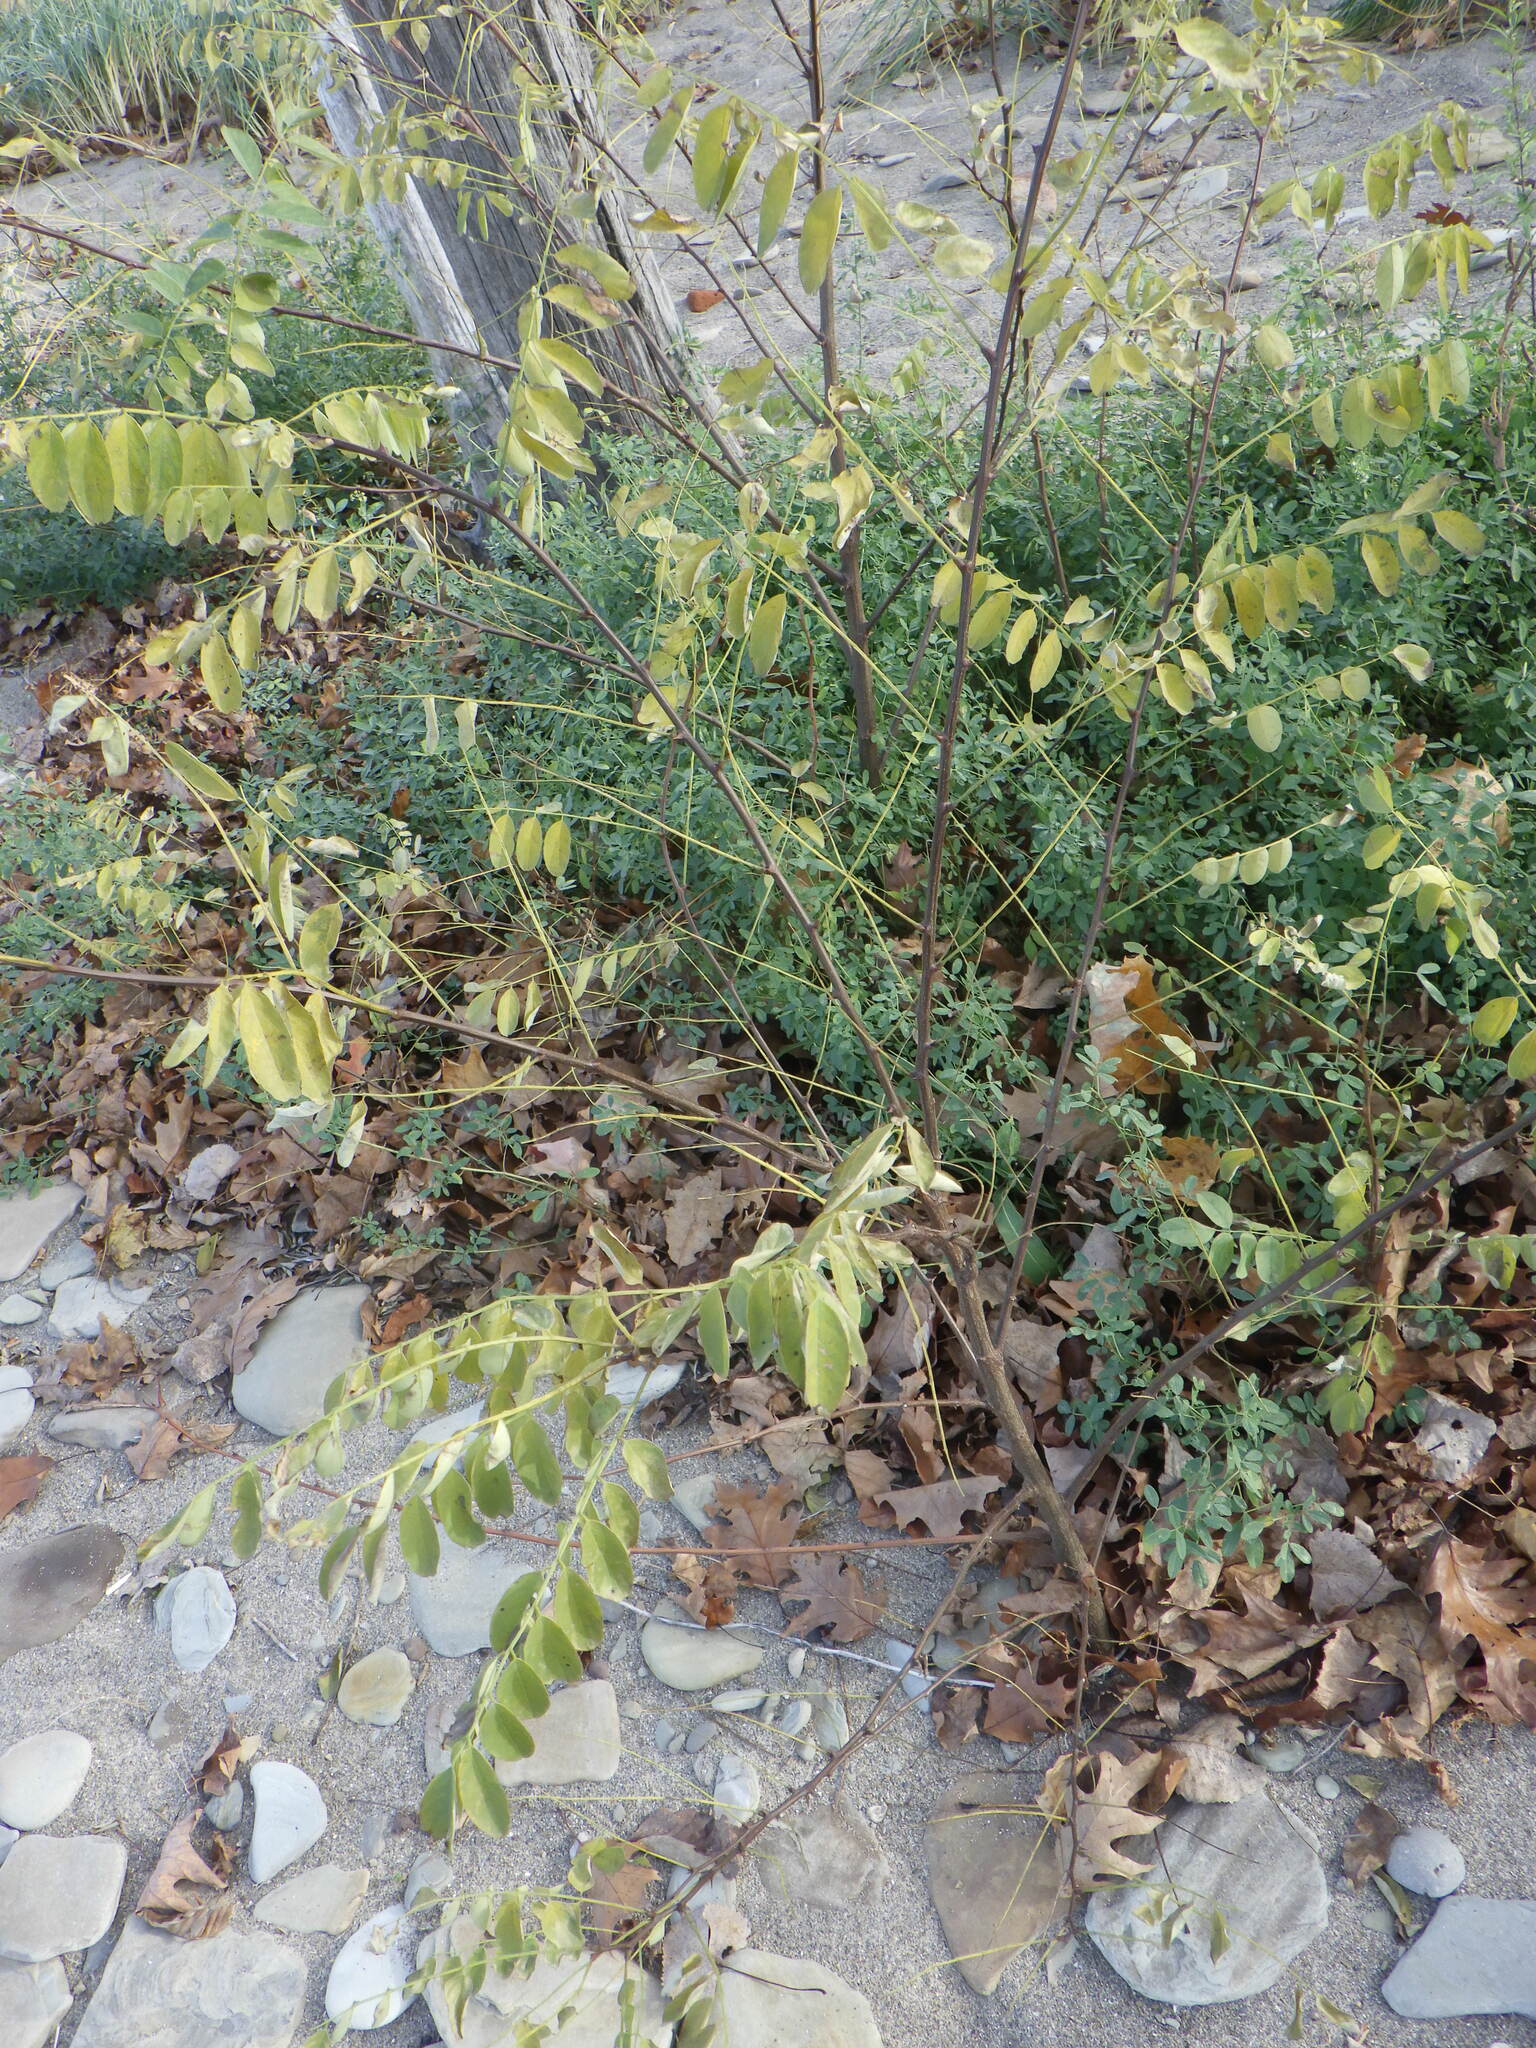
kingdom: Plantae
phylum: Tracheophyta
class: Magnoliopsida
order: Fabales
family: Fabaceae
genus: Robinia
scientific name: Robinia pseudoacacia
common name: Black locust
